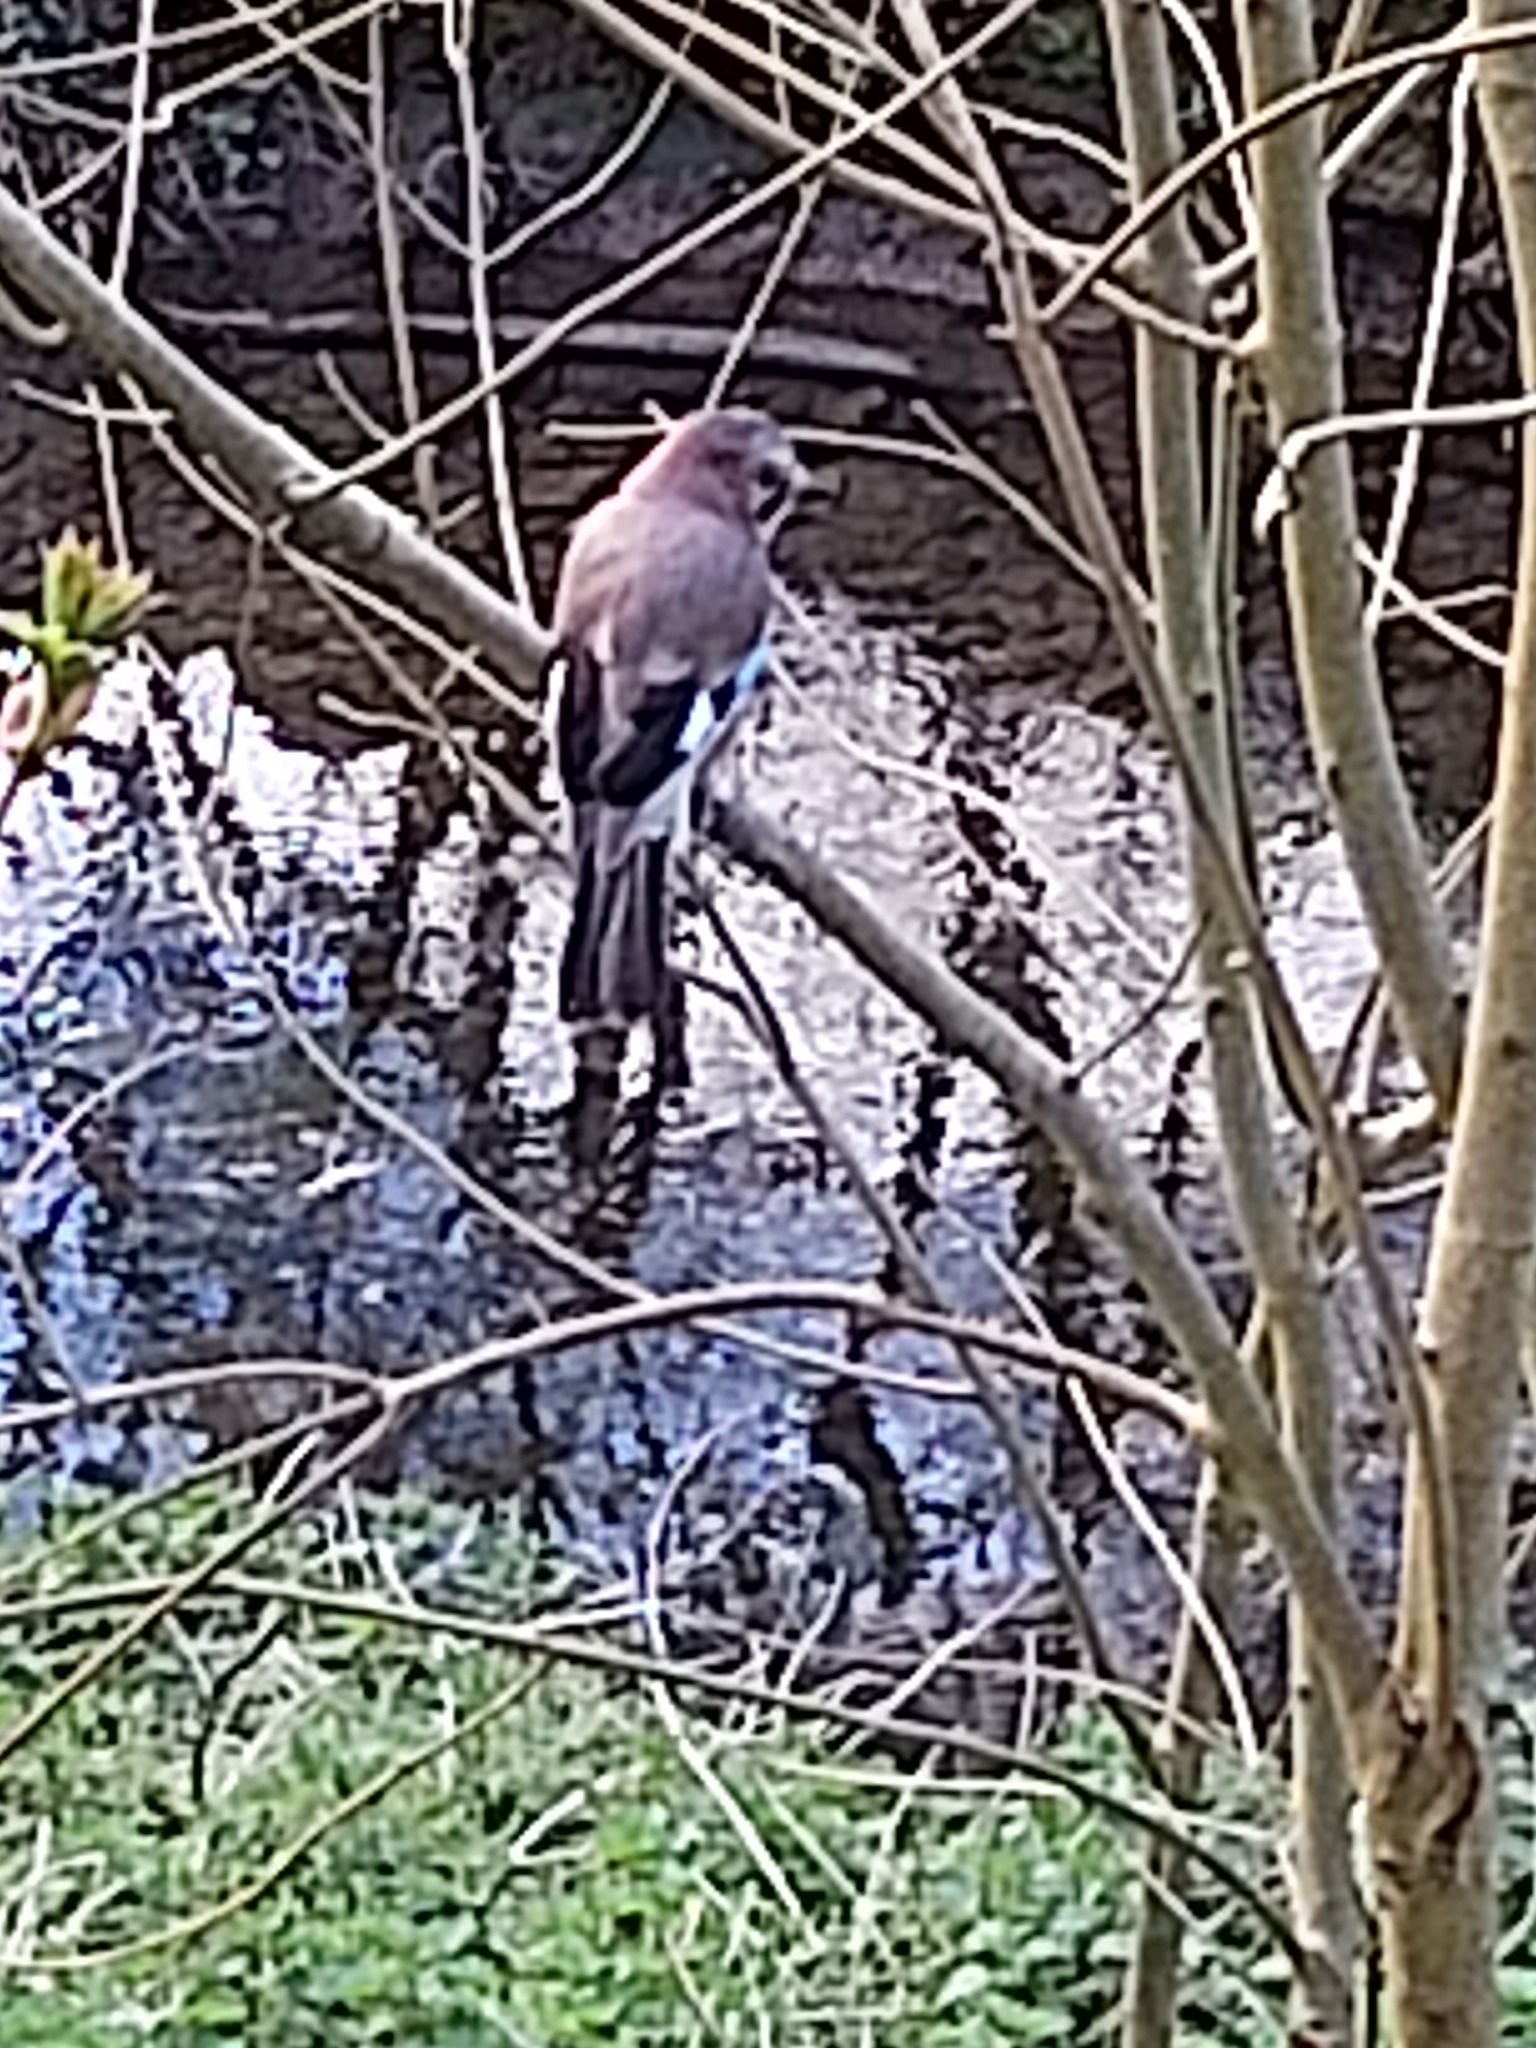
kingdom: Animalia
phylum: Chordata
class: Aves
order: Passeriformes
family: Corvidae
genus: Garrulus
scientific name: Garrulus glandarius
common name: Eurasian jay
